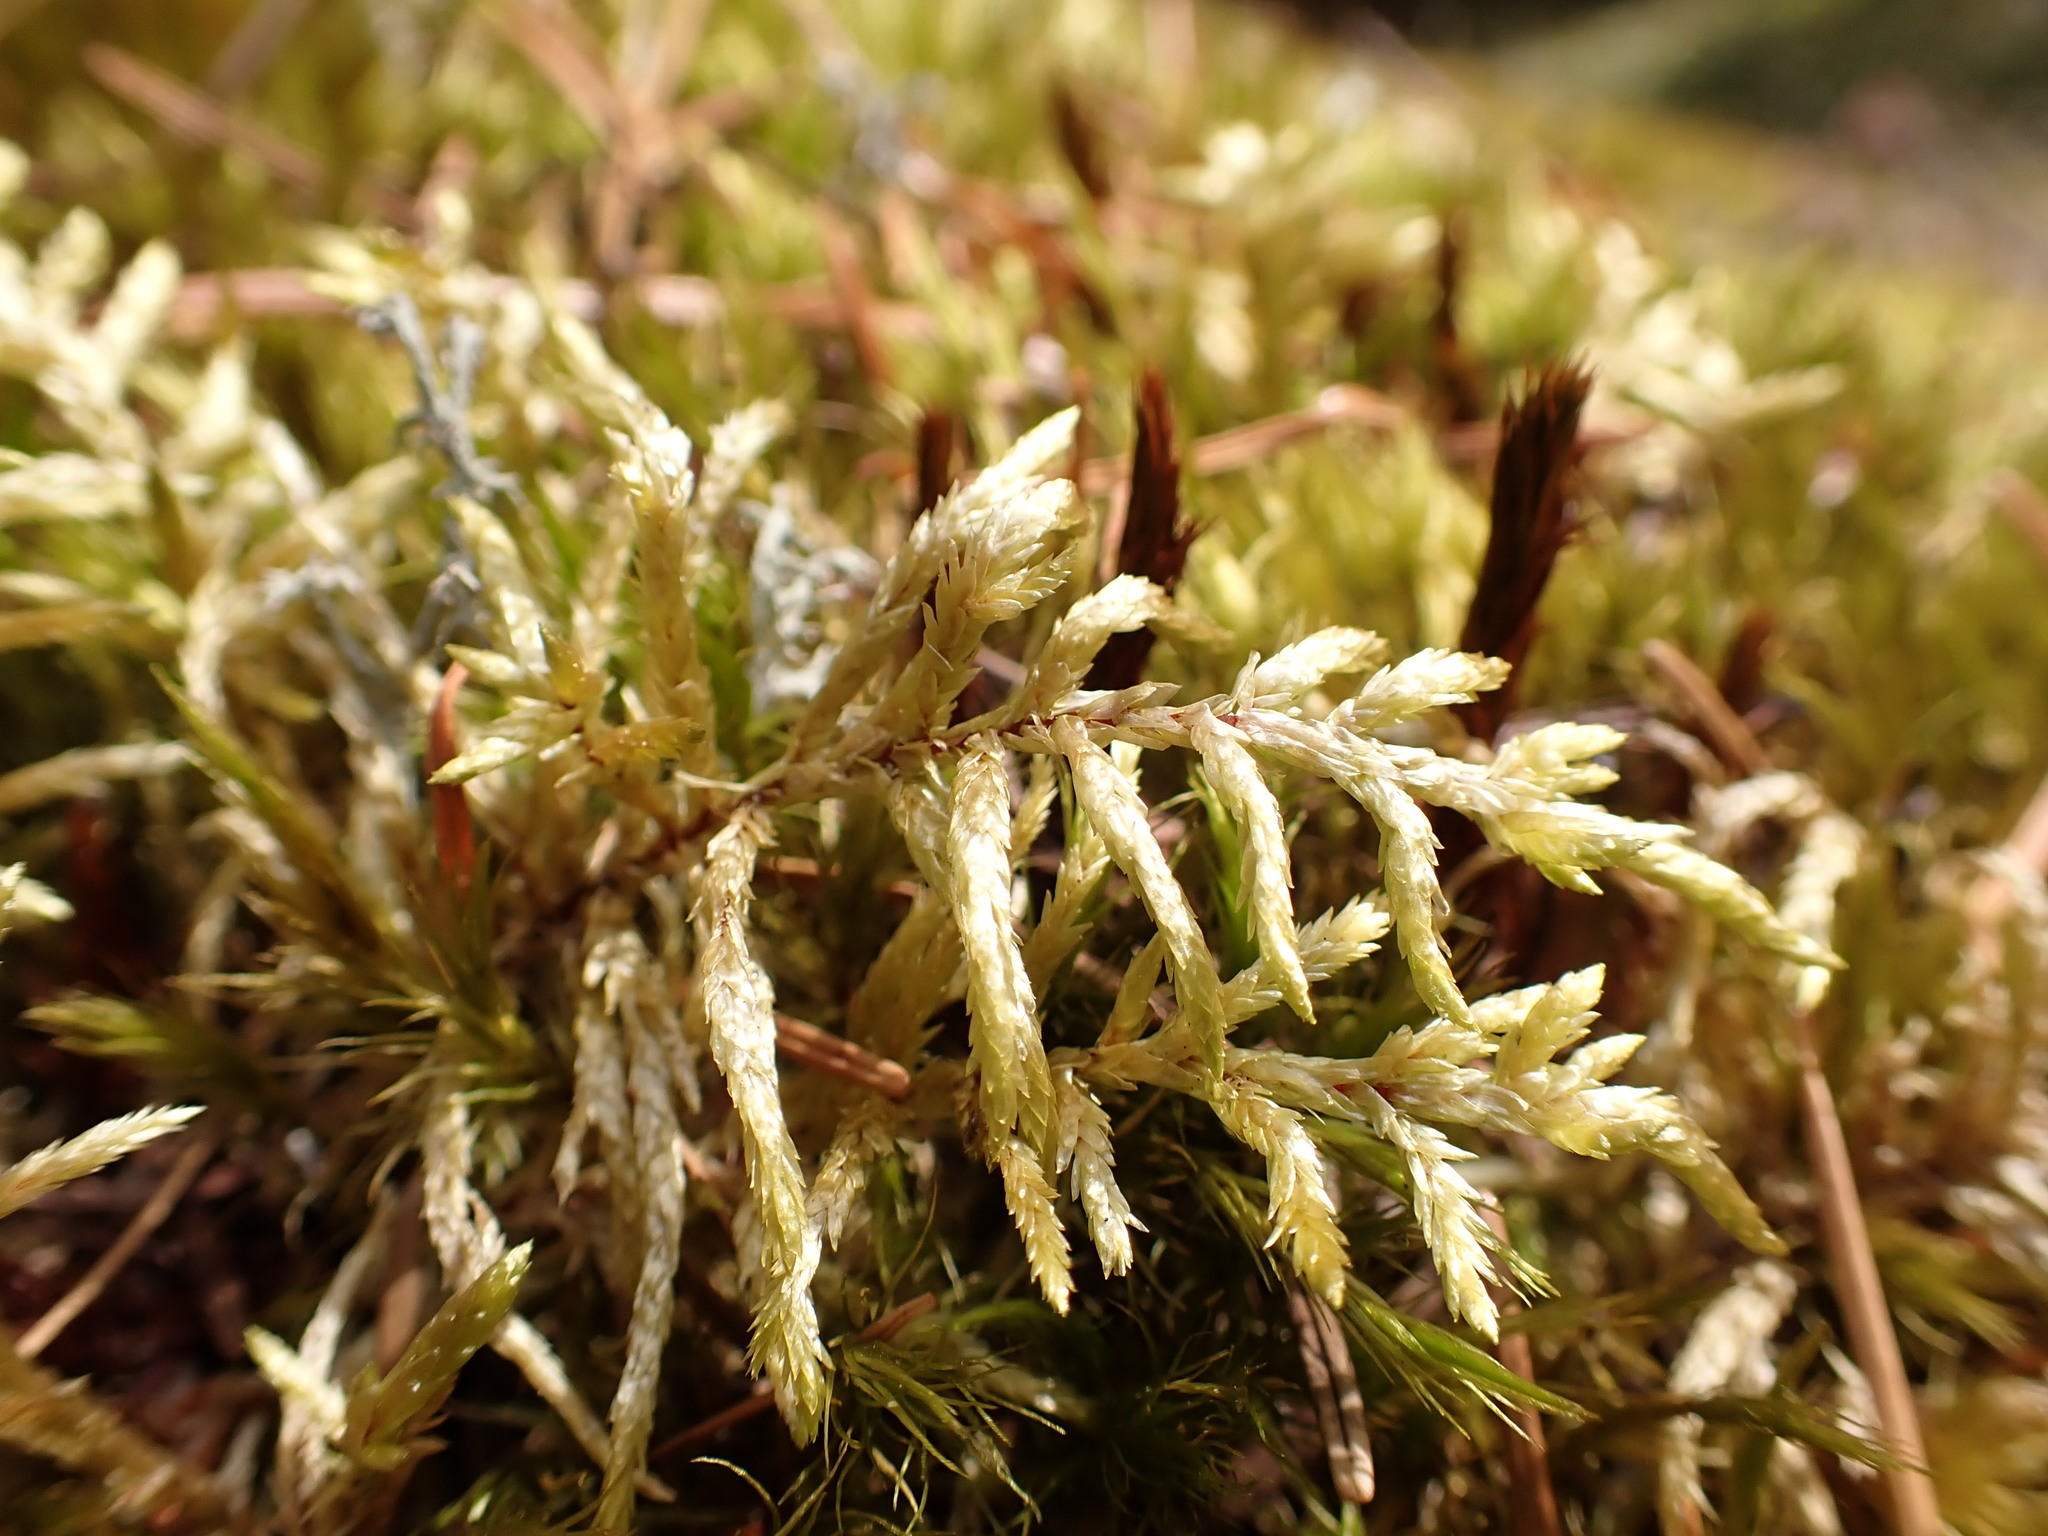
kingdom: Plantae
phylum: Bryophyta
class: Bryopsida
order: Hypnales
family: Hylocomiaceae
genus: Pleurozium
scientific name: Pleurozium schreberi
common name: Red-stemmed feather moss
